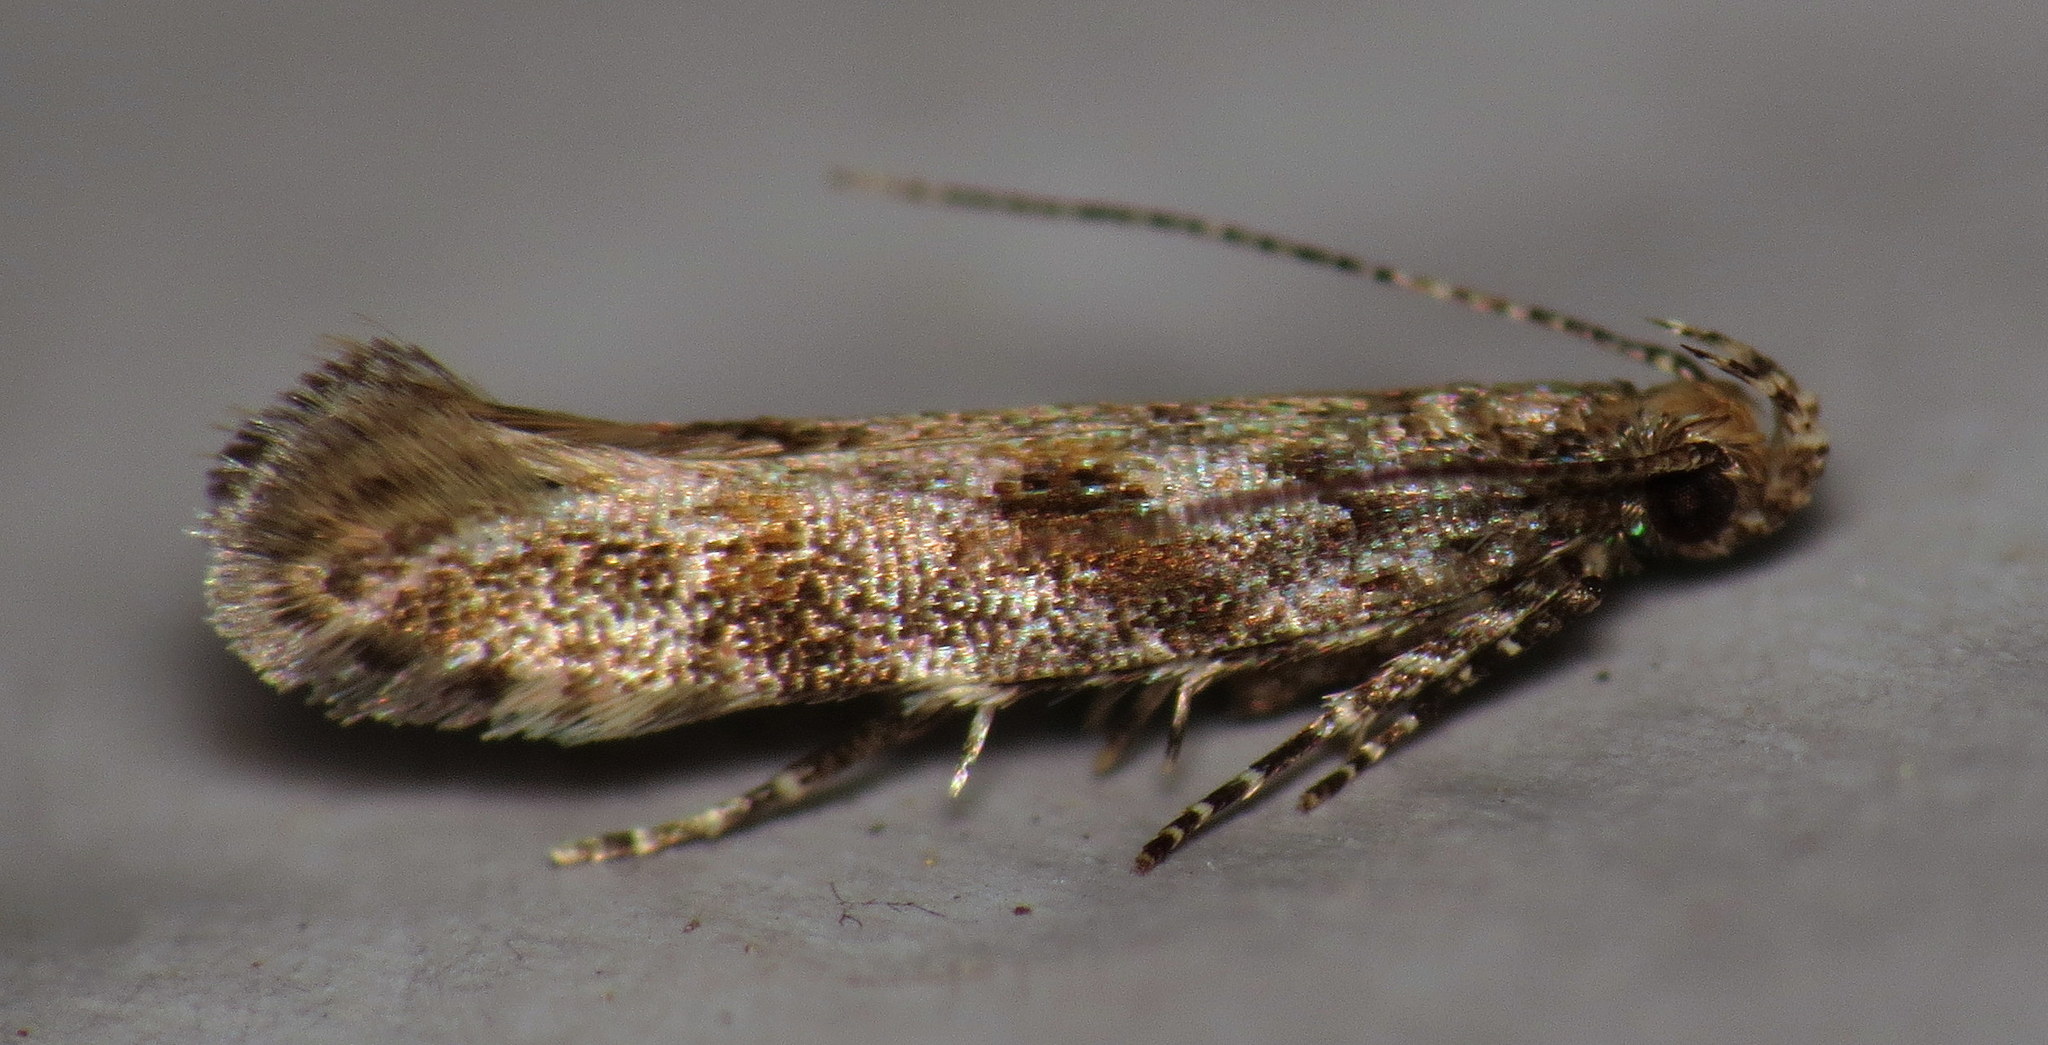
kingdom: Animalia
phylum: Arthropoda
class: Insecta
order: Lepidoptera
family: Gelechiidae
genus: Aristotelia
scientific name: Aristotelia rubidella
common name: Ruby aristotelia moth
